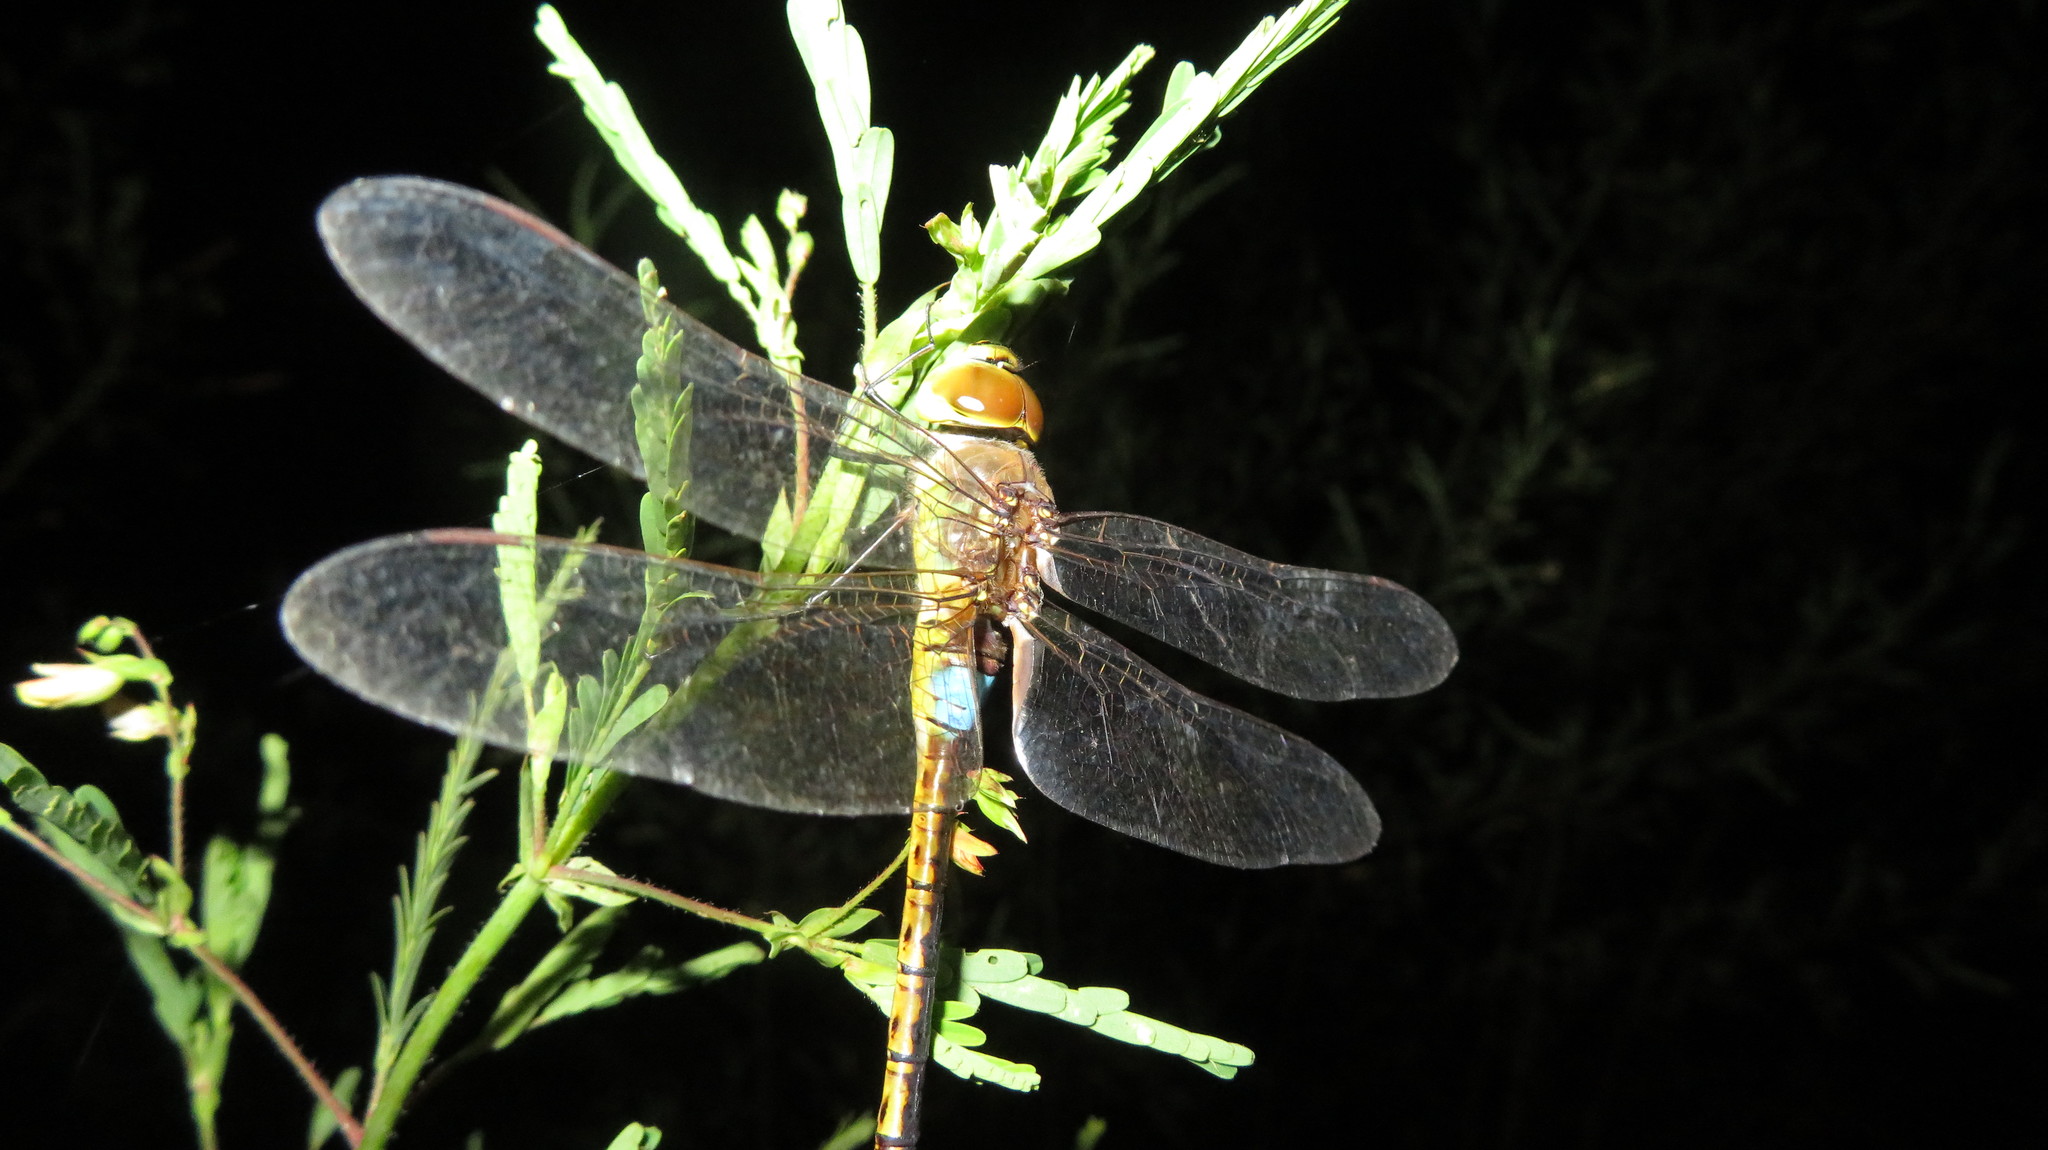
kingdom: Animalia
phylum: Arthropoda
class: Insecta
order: Odonata
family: Aeshnidae
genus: Anax
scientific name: Anax ephippiger
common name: Vagrant emperor
